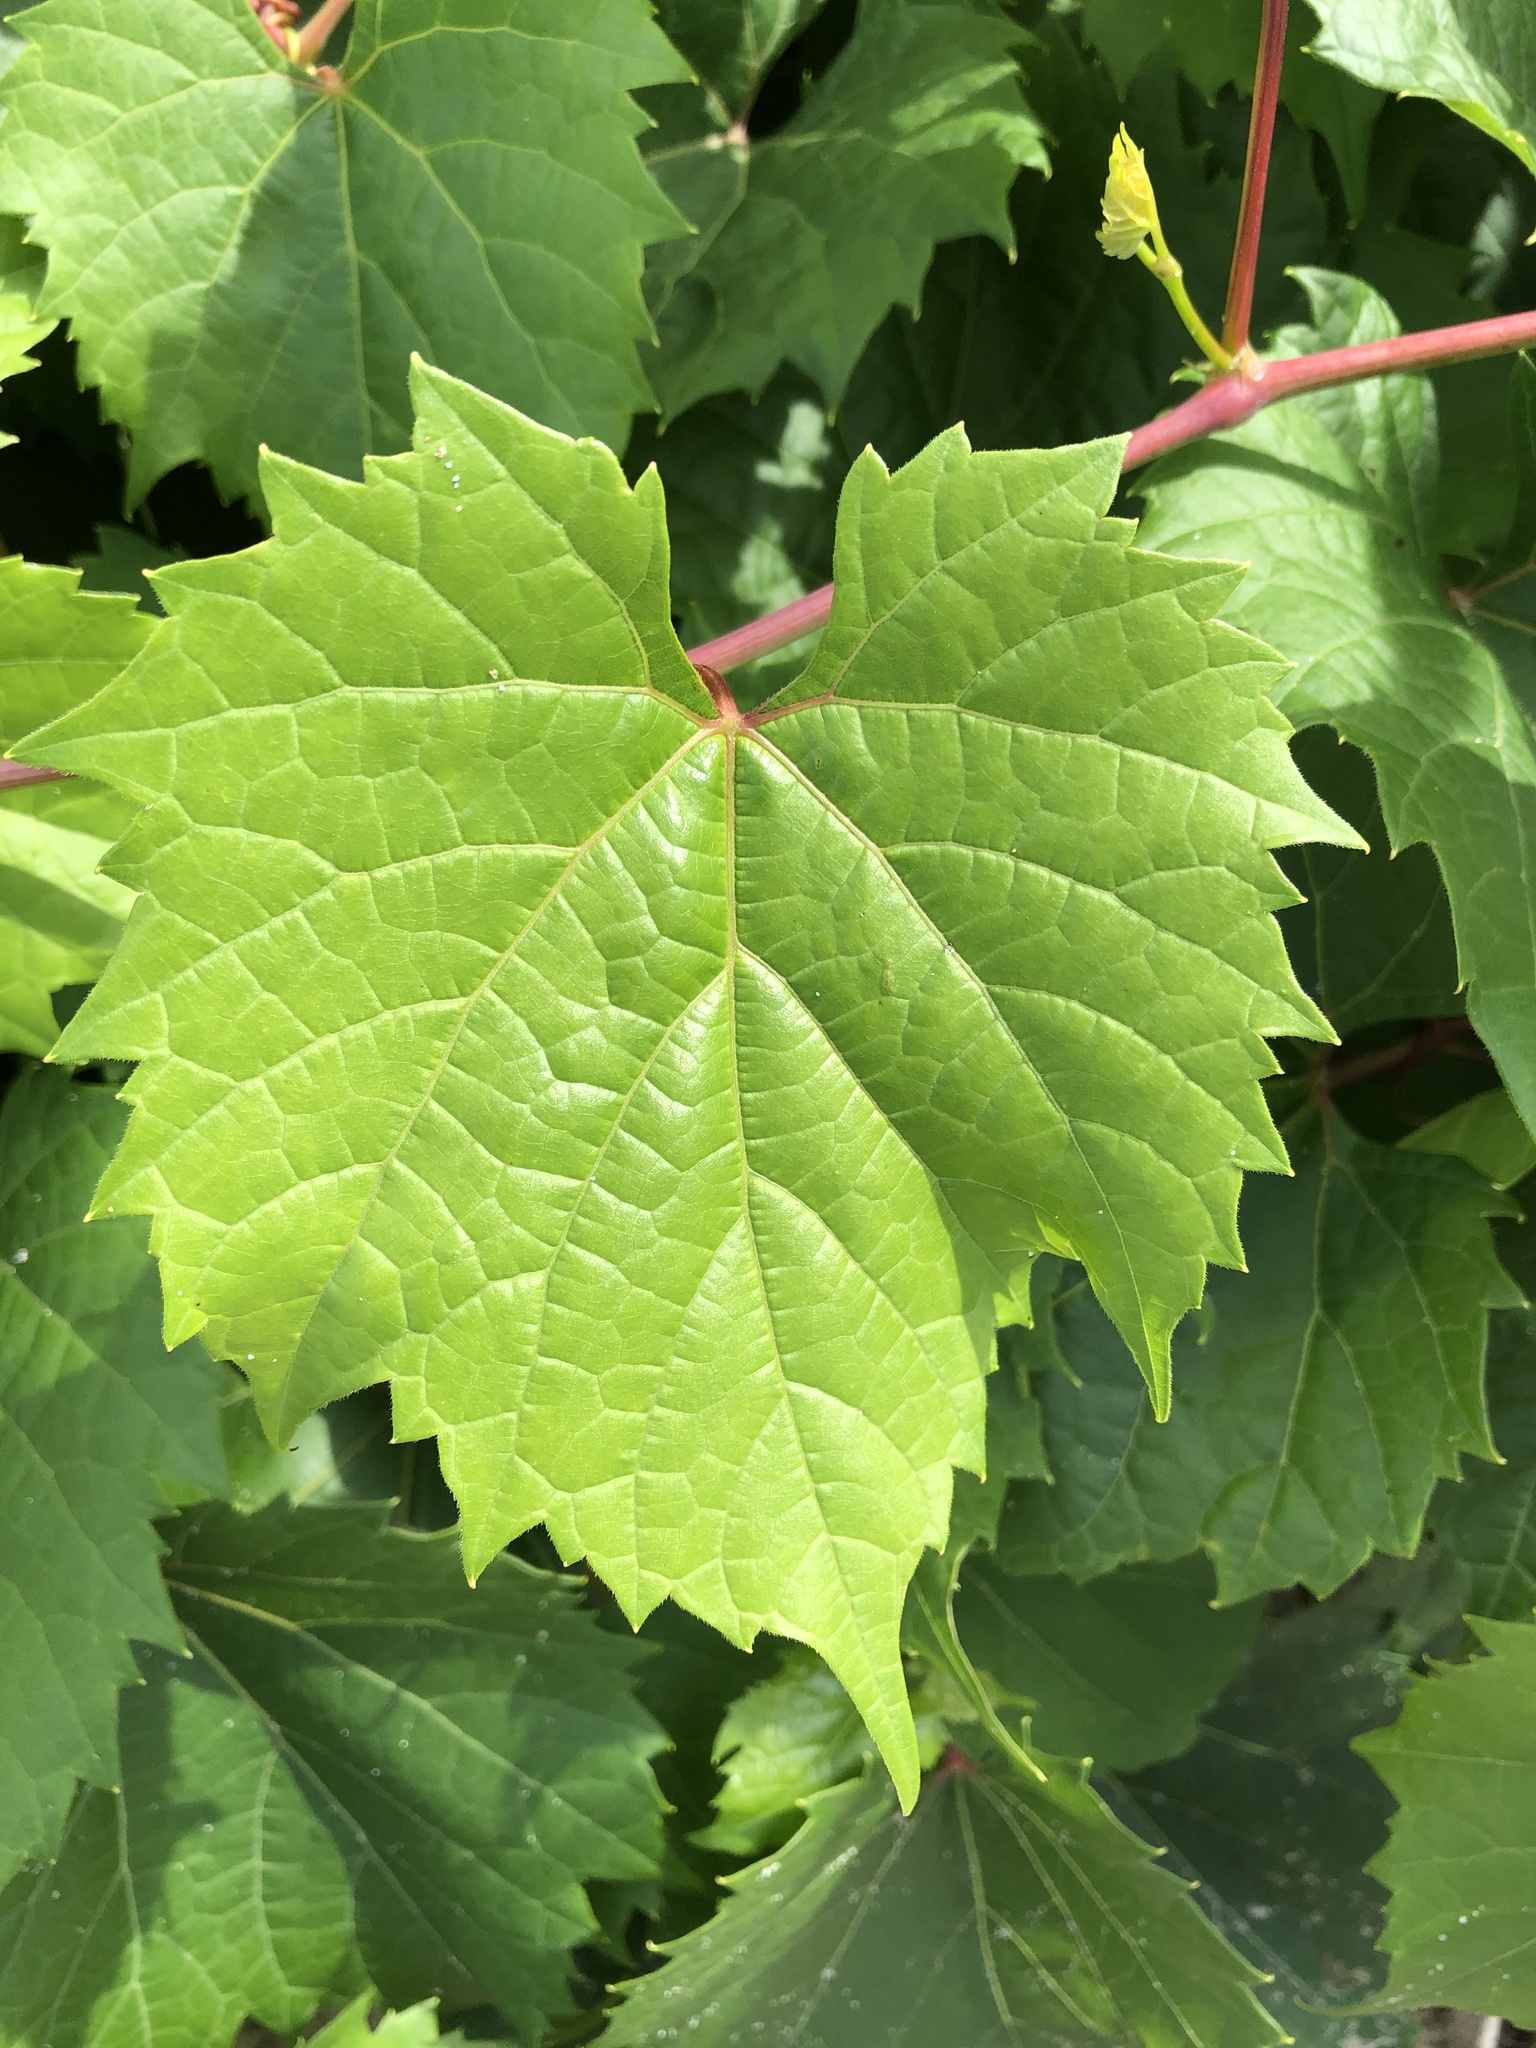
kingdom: Plantae
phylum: Tracheophyta
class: Magnoliopsida
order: Vitales
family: Vitaceae
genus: Vitis
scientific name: Vitis riparia
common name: Frost grape
